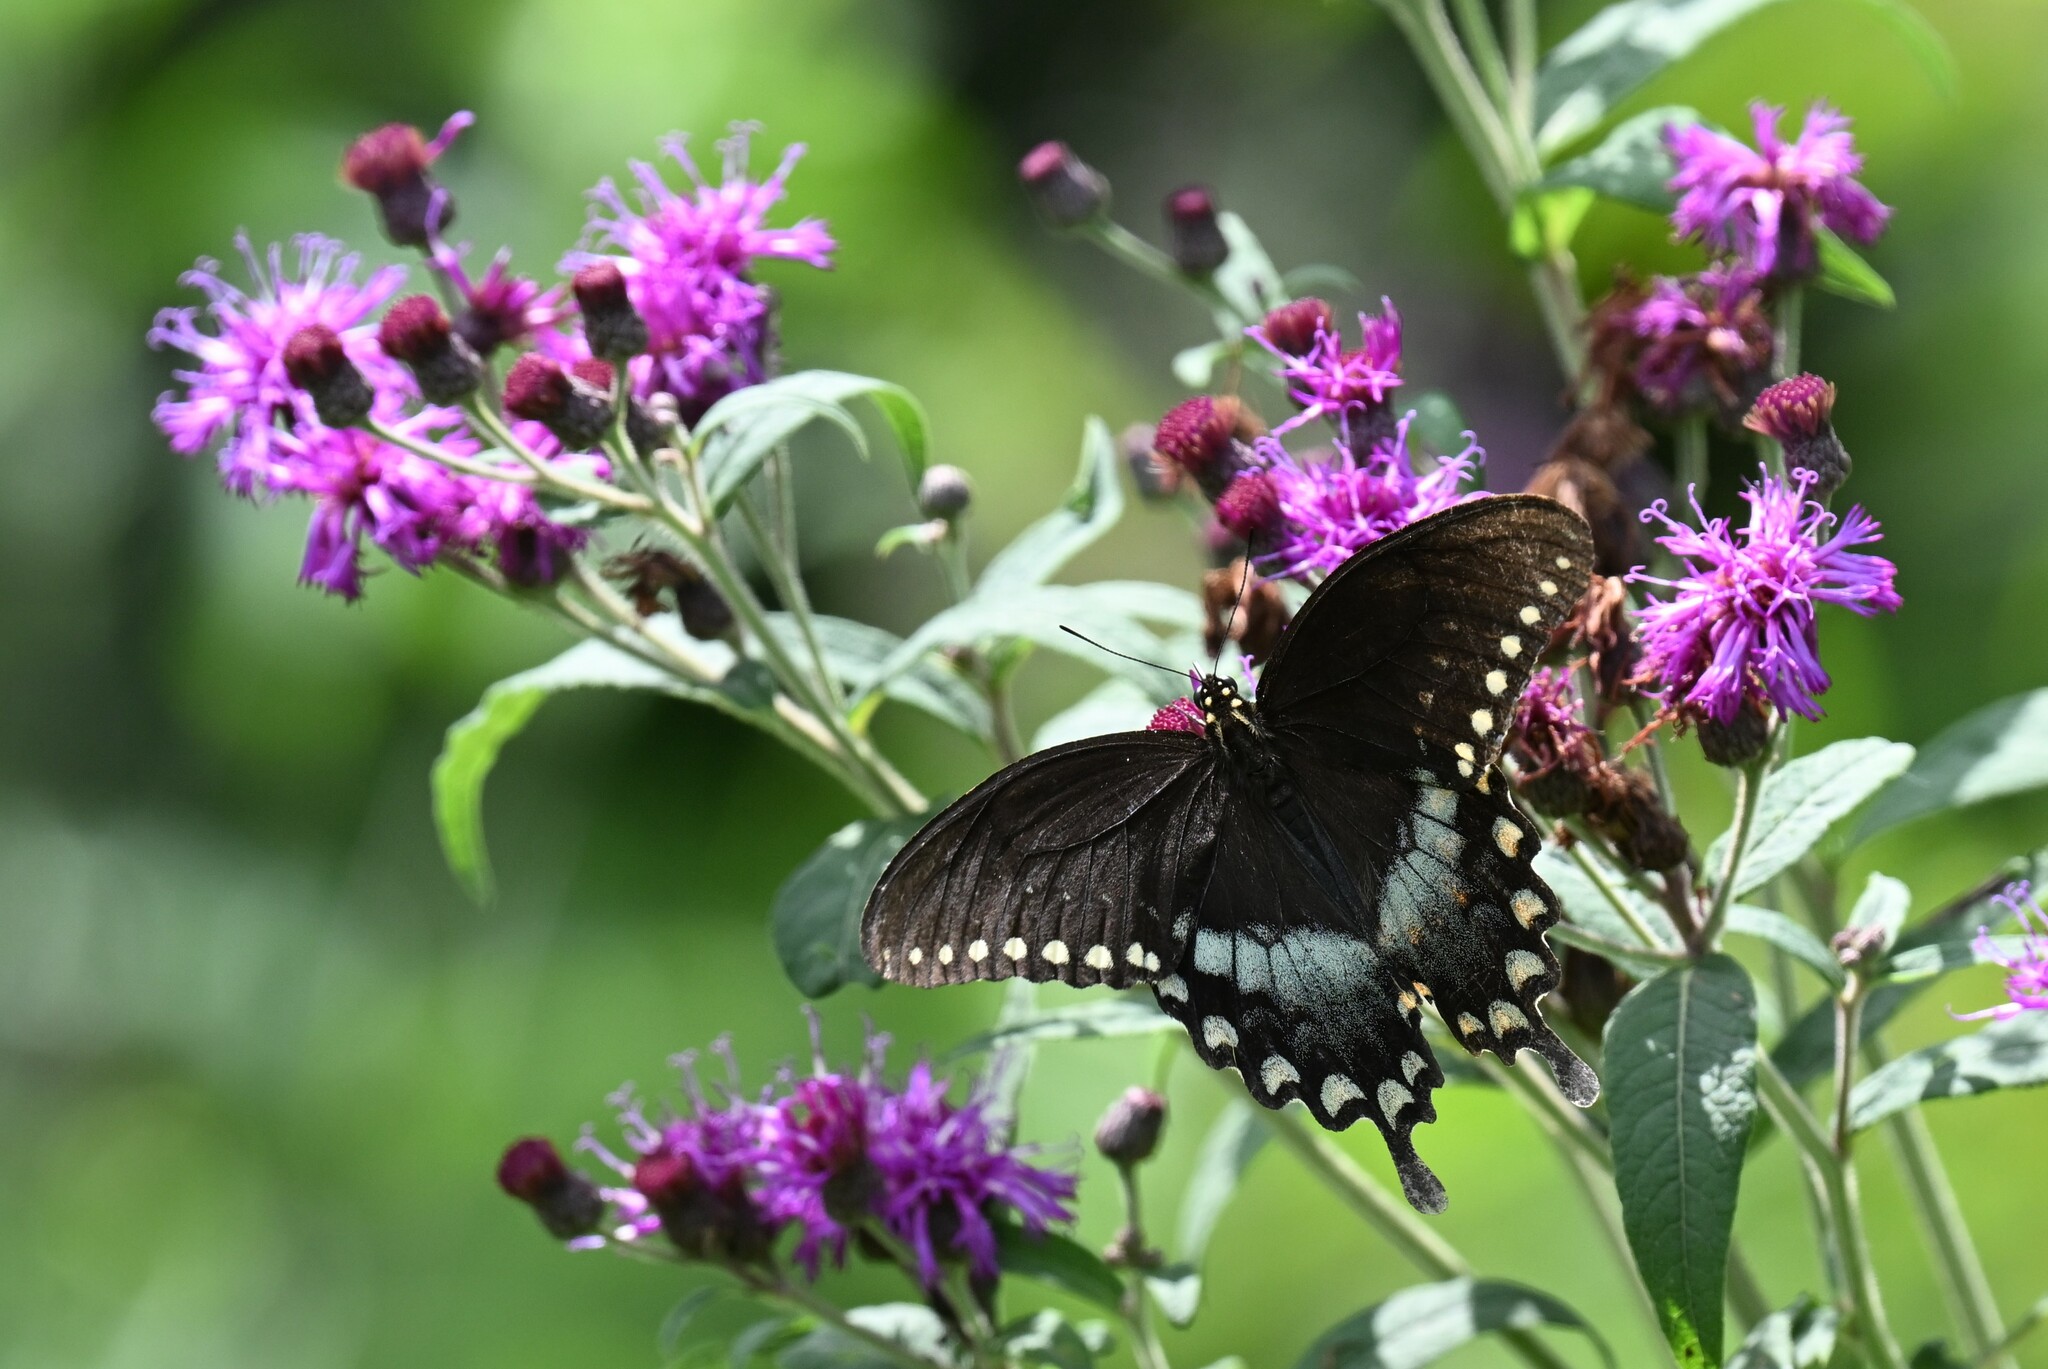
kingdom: Animalia
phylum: Arthropoda
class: Insecta
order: Lepidoptera
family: Papilionidae
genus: Papilio
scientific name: Papilio troilus
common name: Spicebush swallowtail
